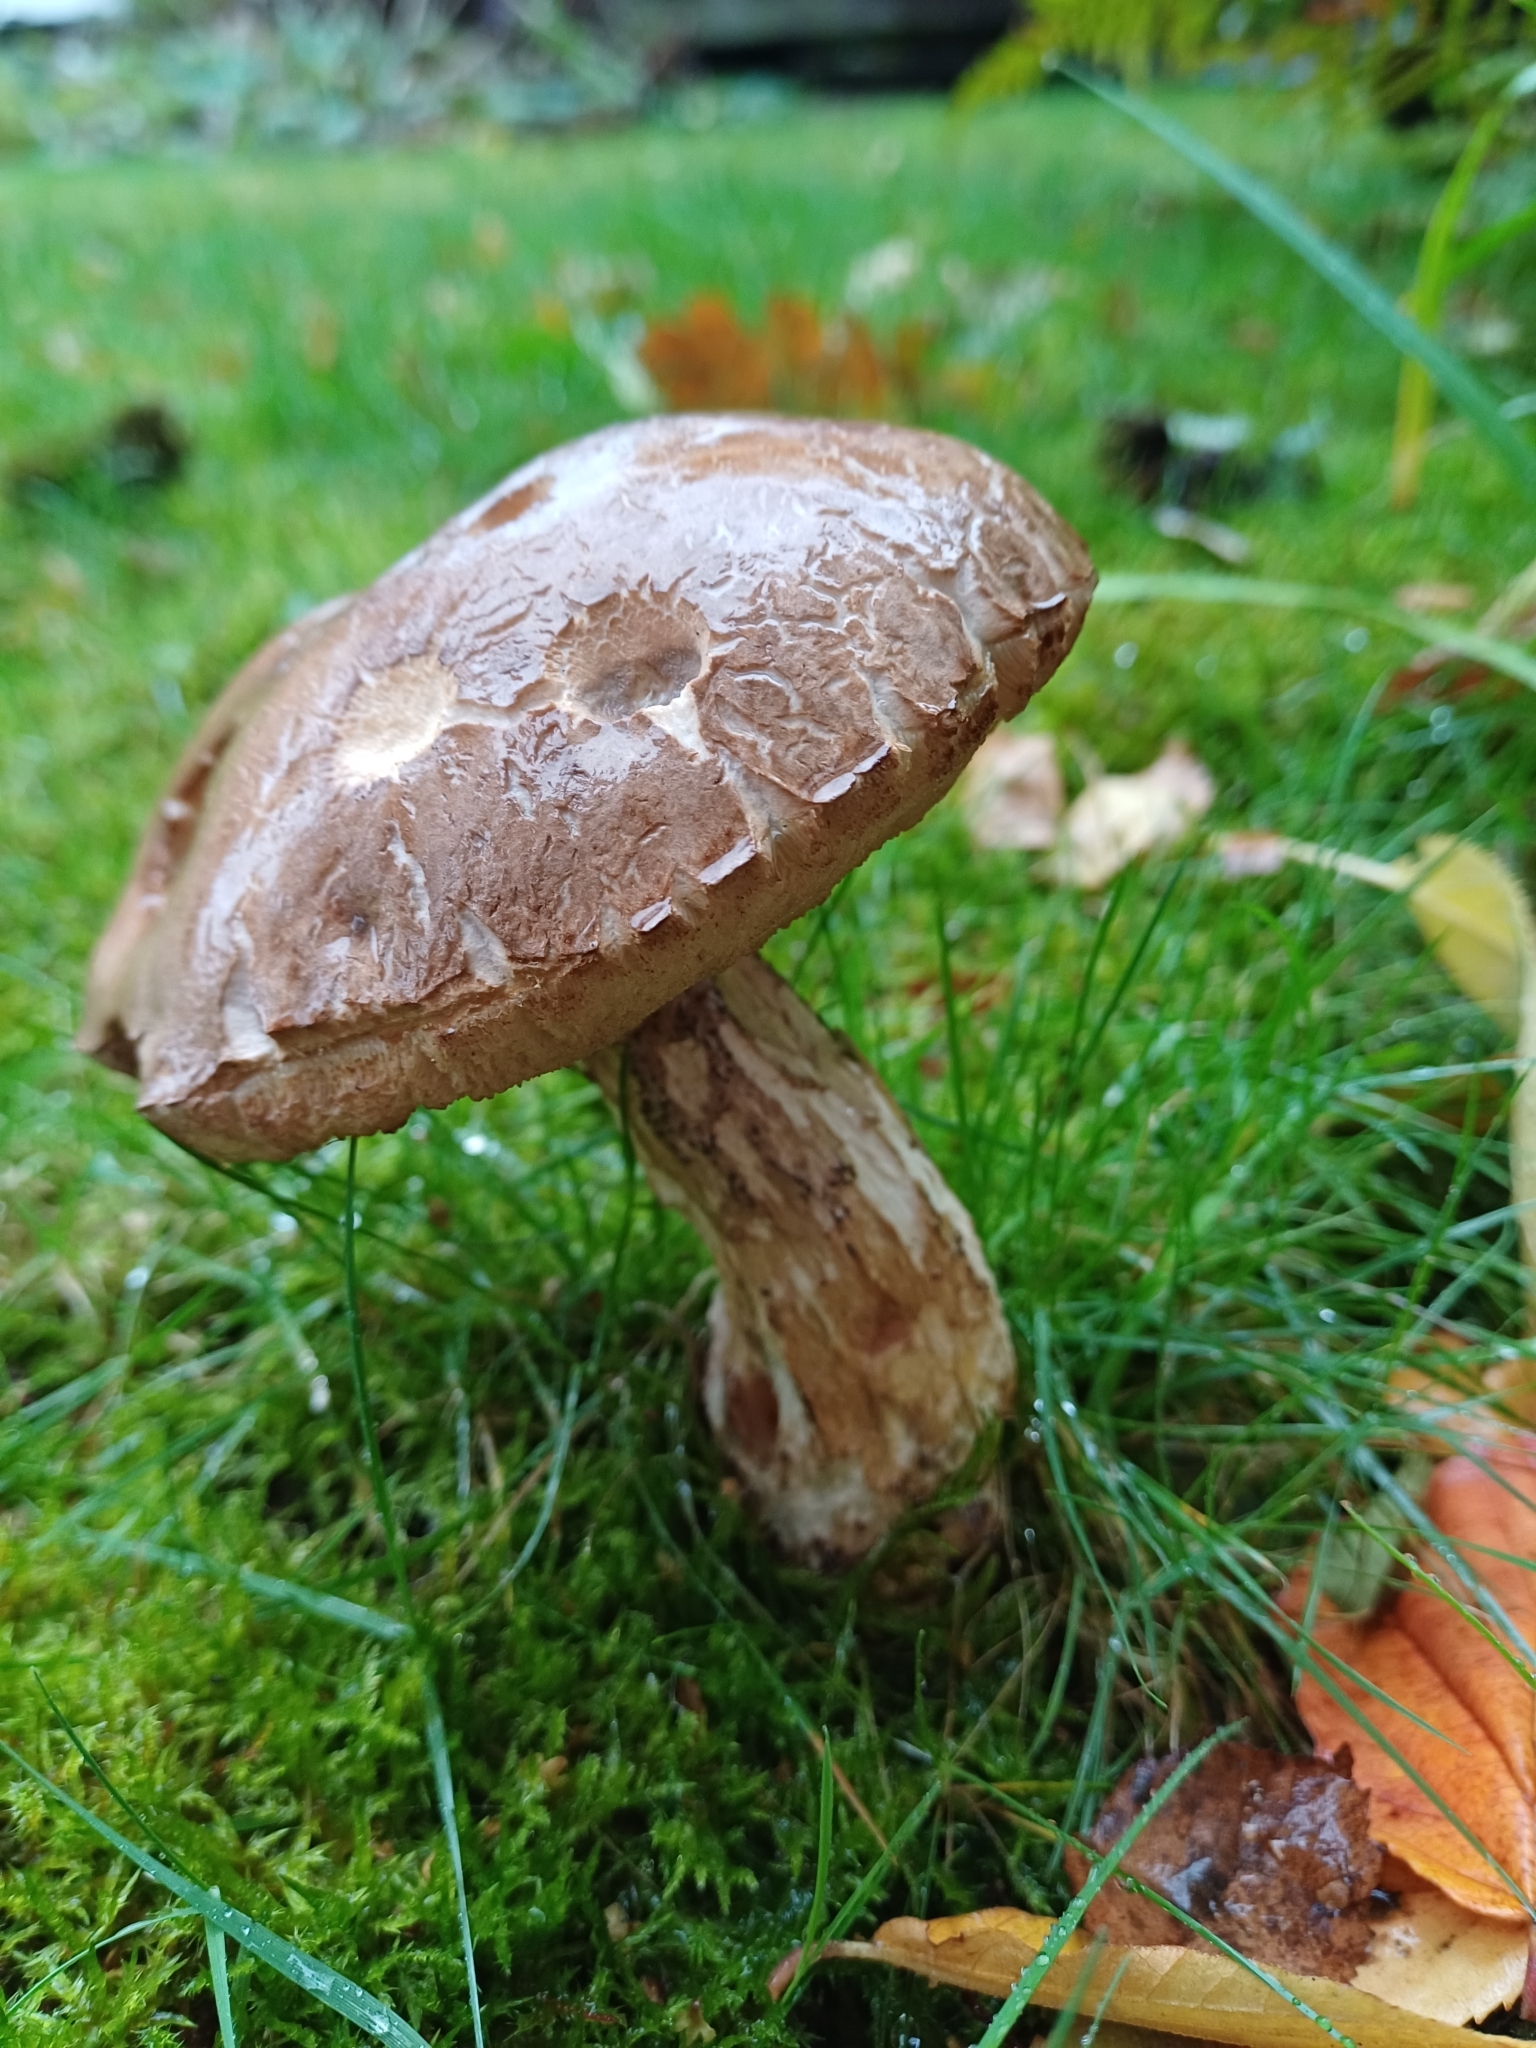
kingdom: Fungi
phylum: Basidiomycota
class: Agaricomycetes
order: Boletales
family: Boletaceae
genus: Leccinum
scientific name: Leccinum scabrum
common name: Blushing bolete
